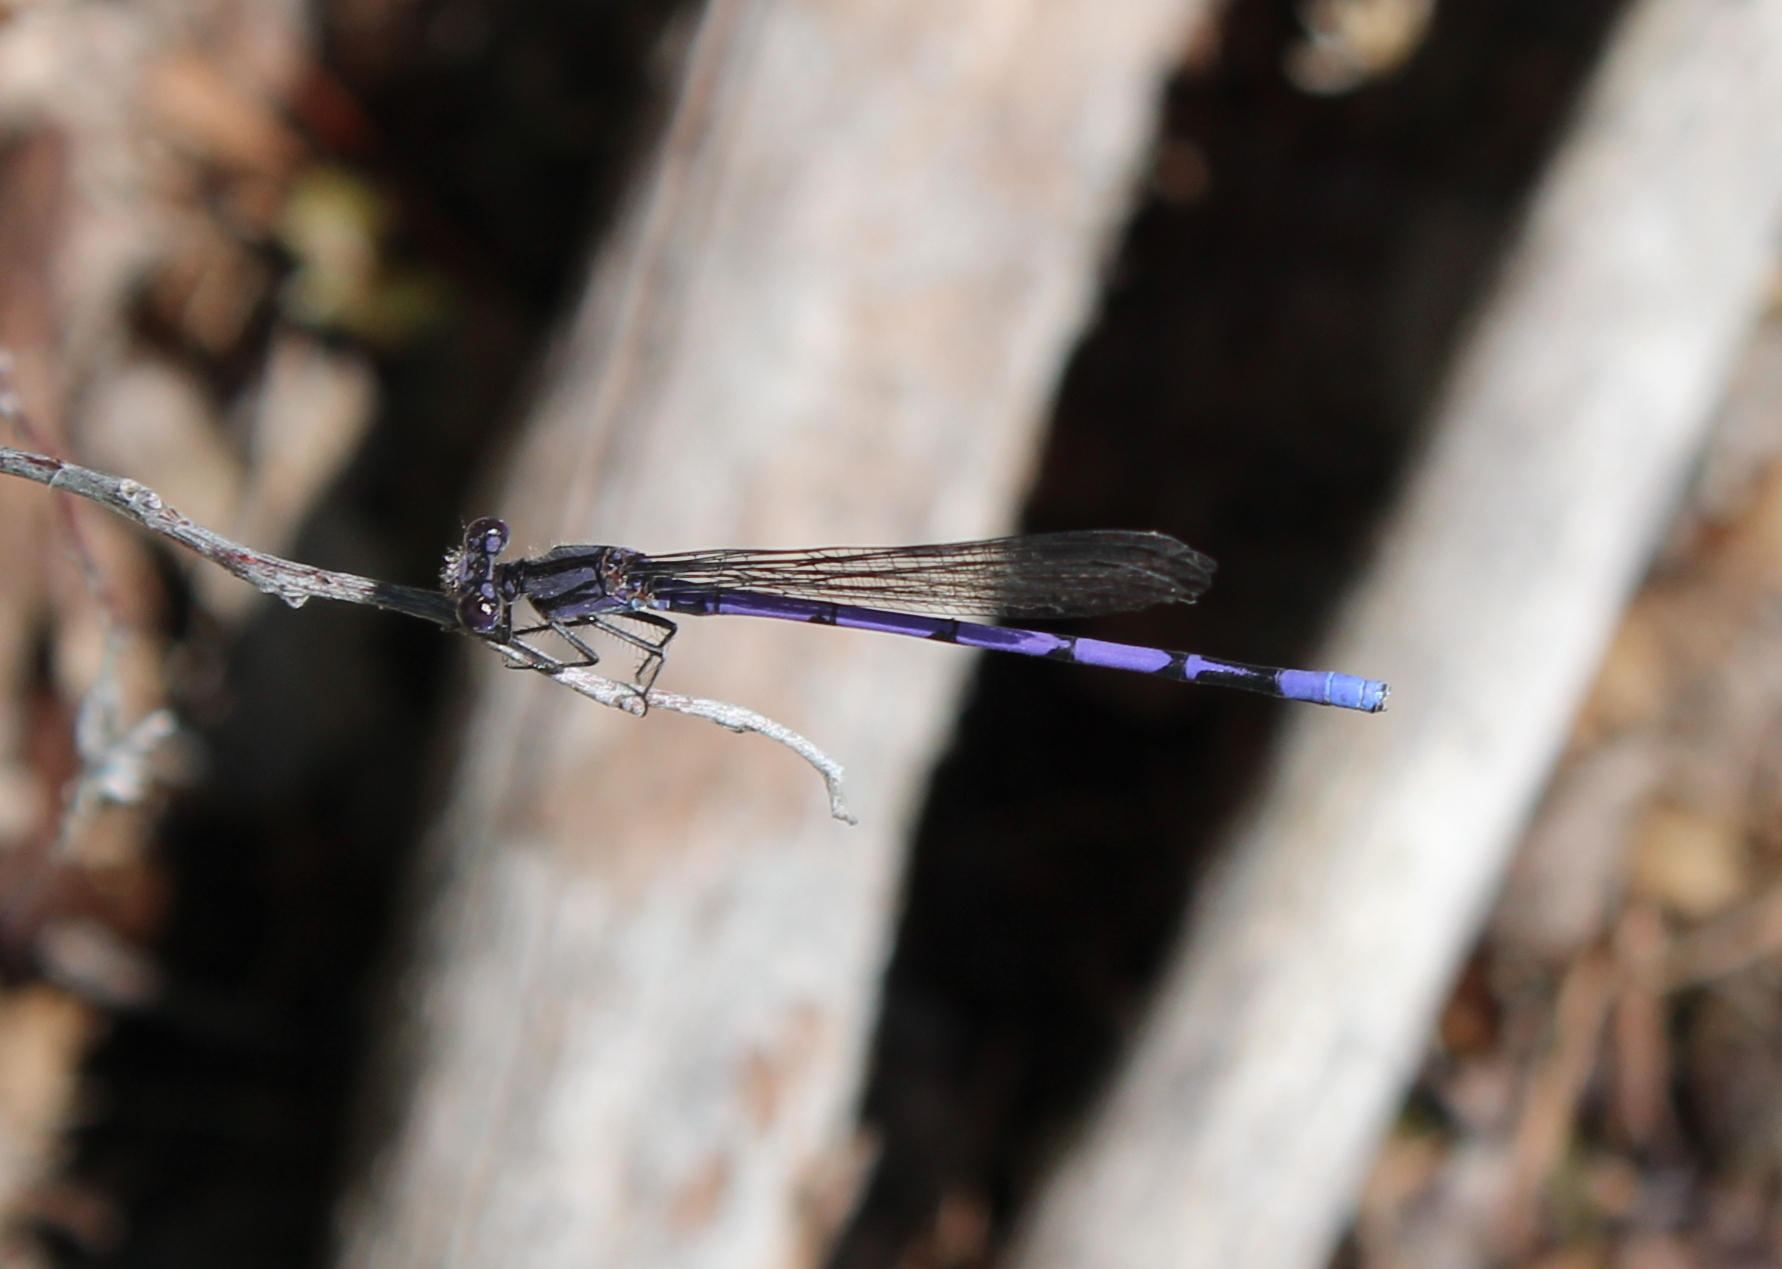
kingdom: Animalia
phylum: Arthropoda
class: Insecta
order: Odonata
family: Coenagrionidae
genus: Argia
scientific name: Argia fumipennis
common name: Variable dancer
